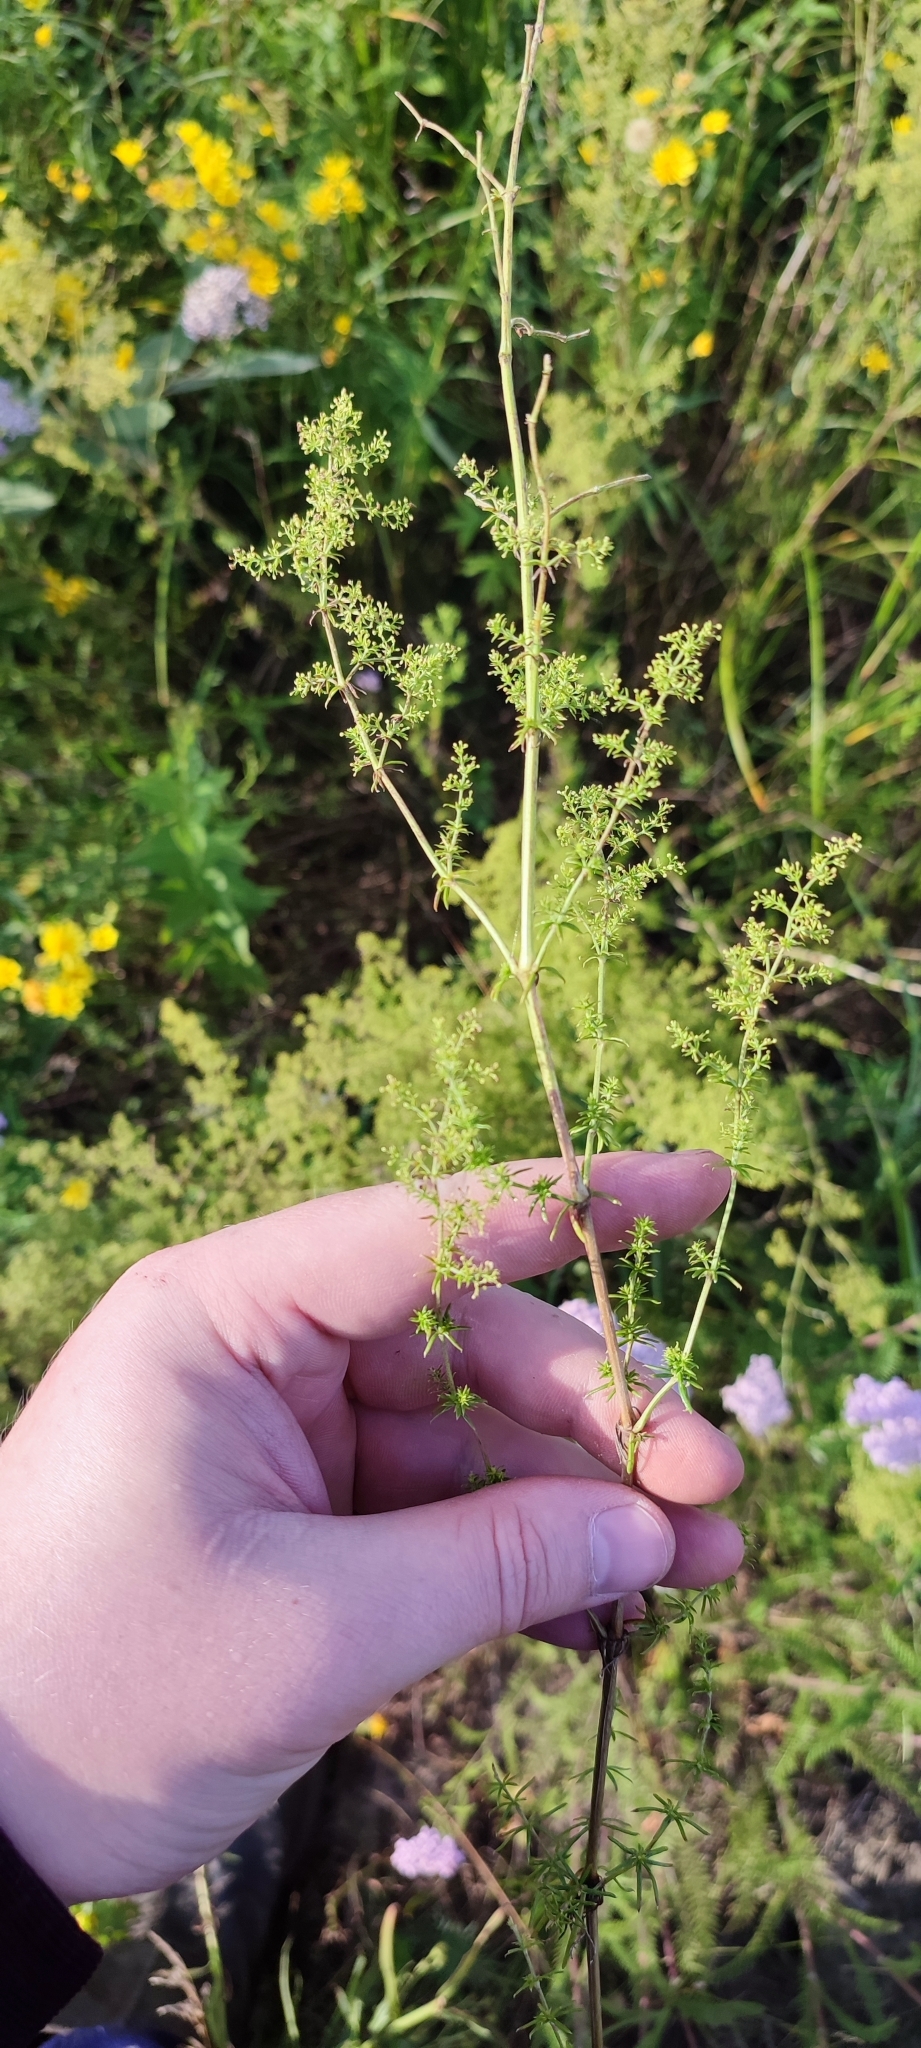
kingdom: Plantae
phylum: Tracheophyta
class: Magnoliopsida
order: Gentianales
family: Rubiaceae
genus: Galium
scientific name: Galium verum
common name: Lady's bedstraw
